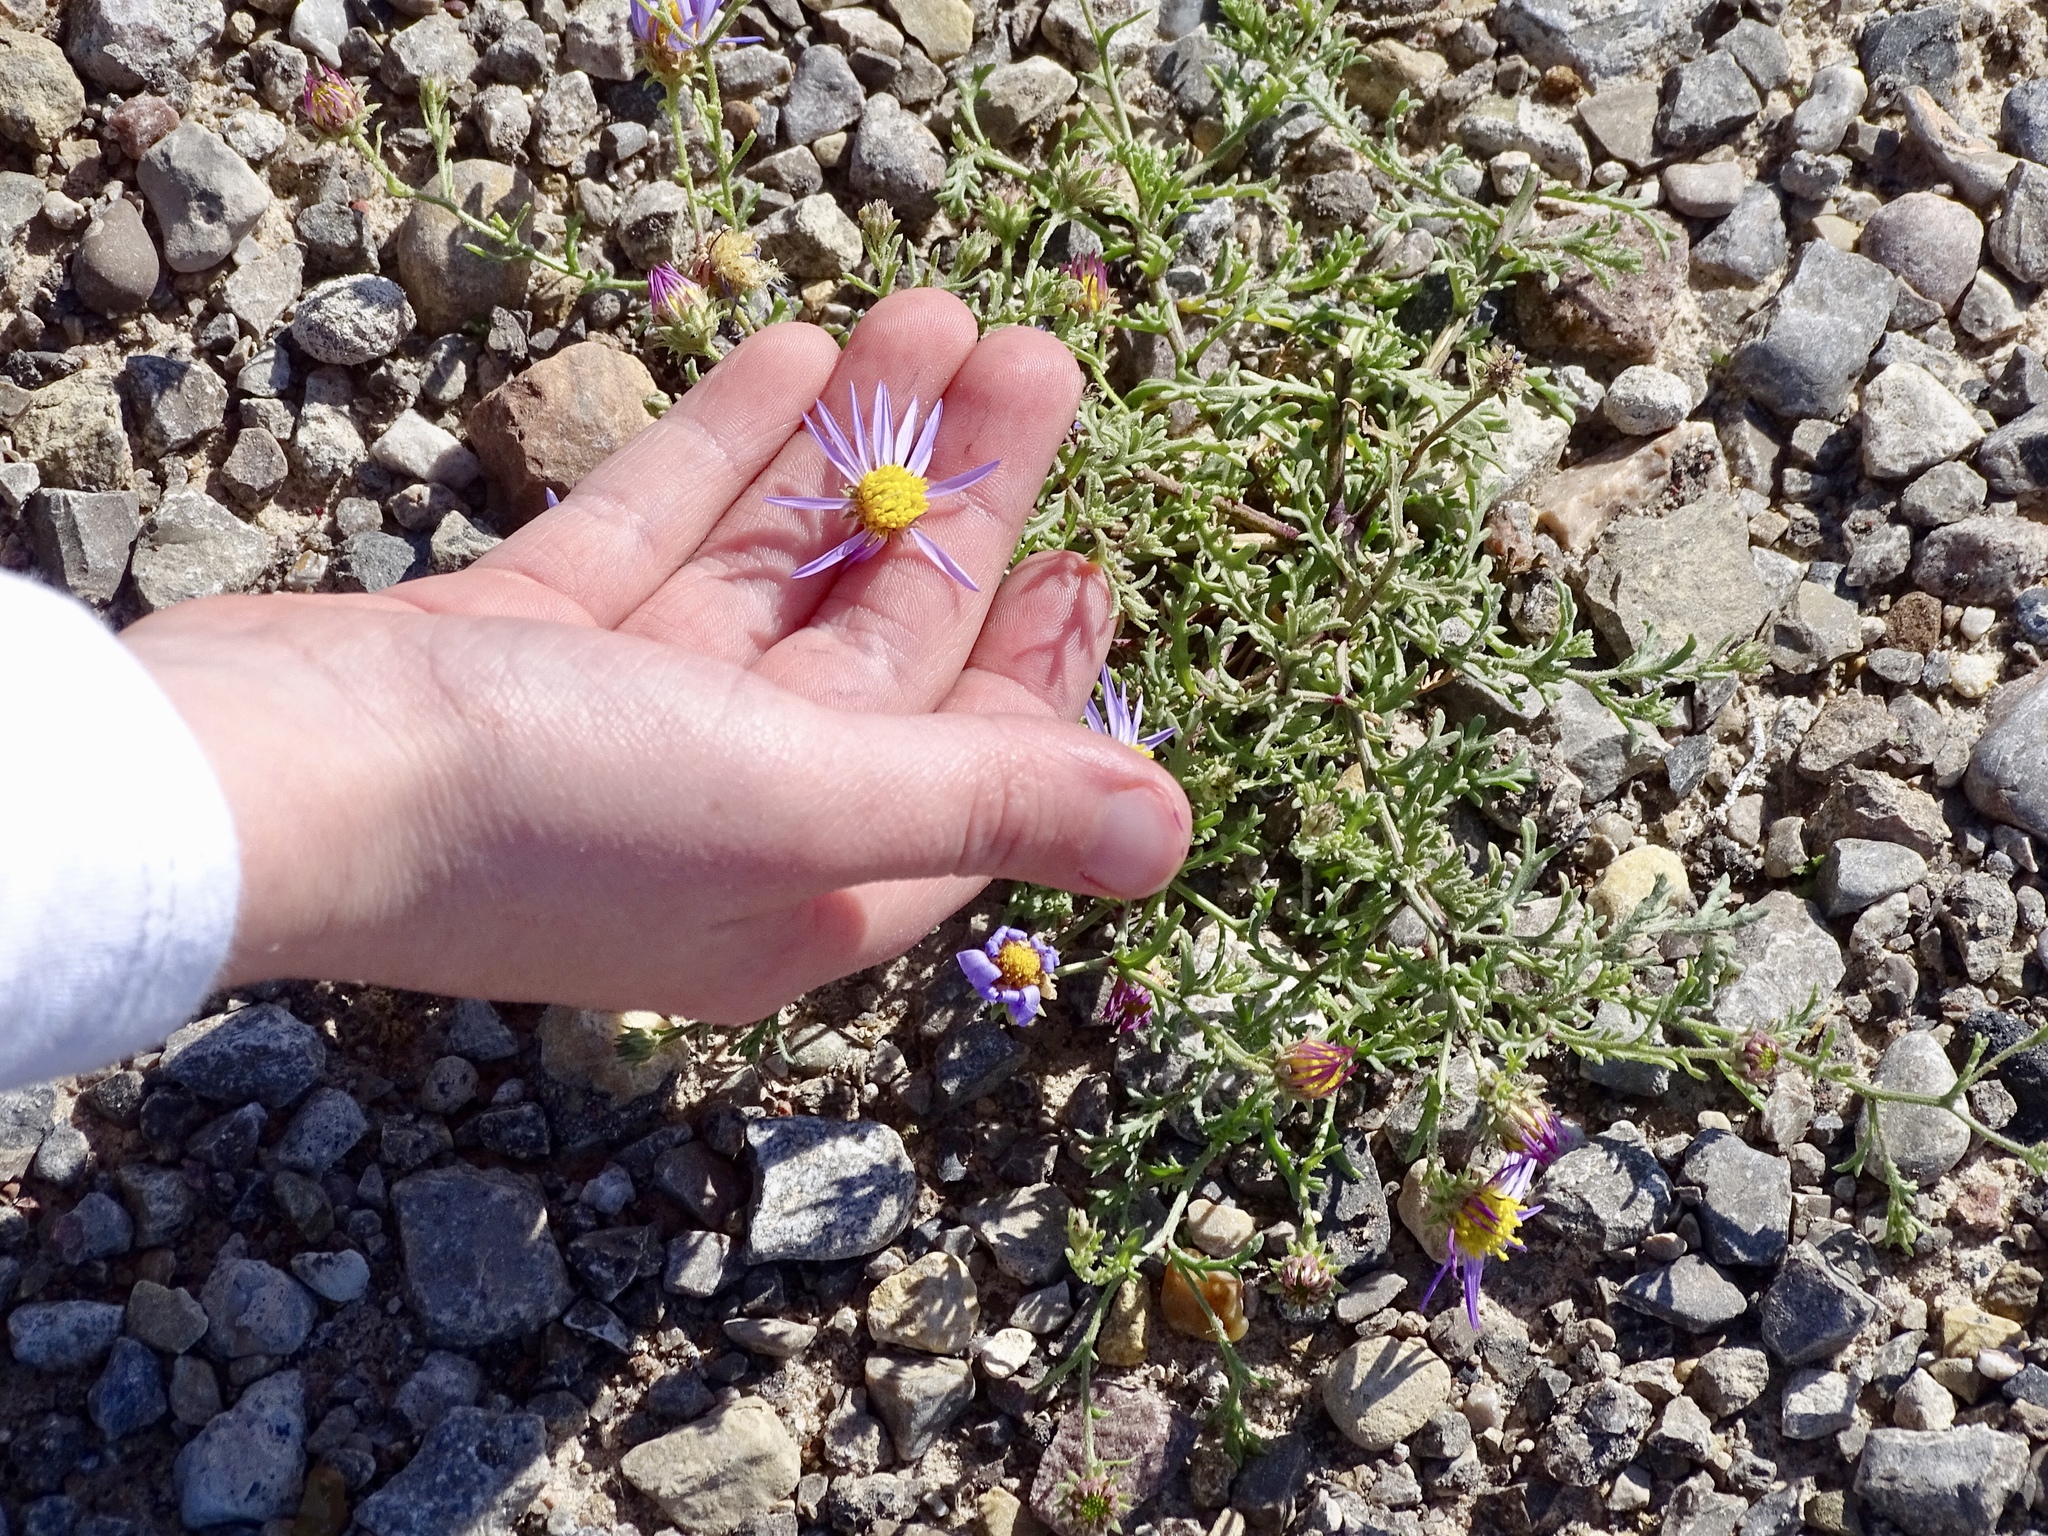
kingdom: Plantae
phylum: Tracheophyta
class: Magnoliopsida
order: Asterales
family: Asteraceae
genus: Leucosyris
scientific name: Leucosyris parviflora
